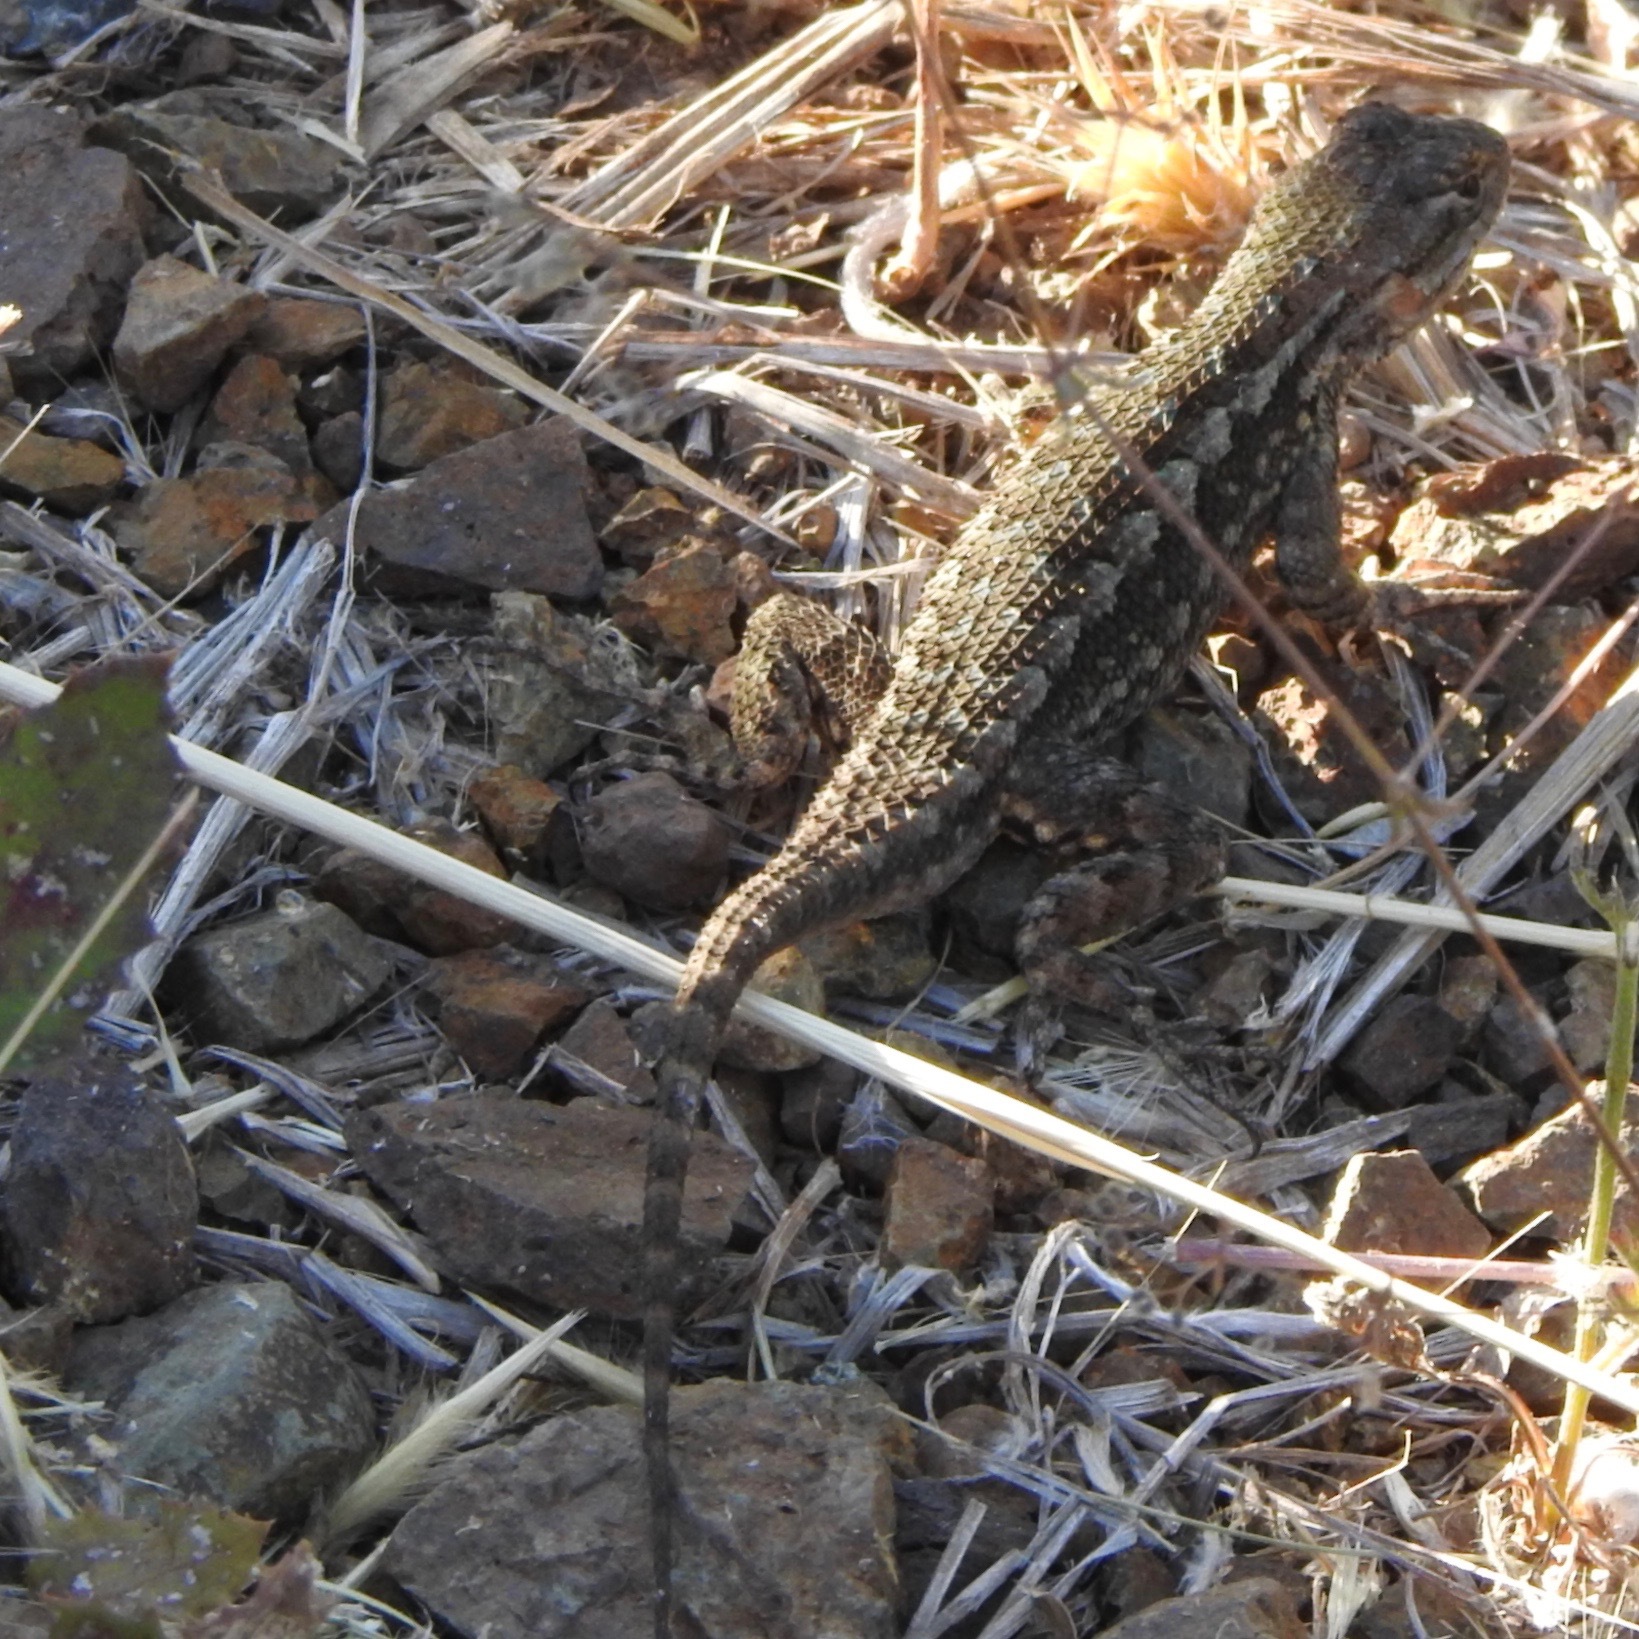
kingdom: Animalia
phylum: Chordata
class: Squamata
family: Phrynosomatidae
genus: Sceloporus
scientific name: Sceloporus occidentalis
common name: Western fence lizard
